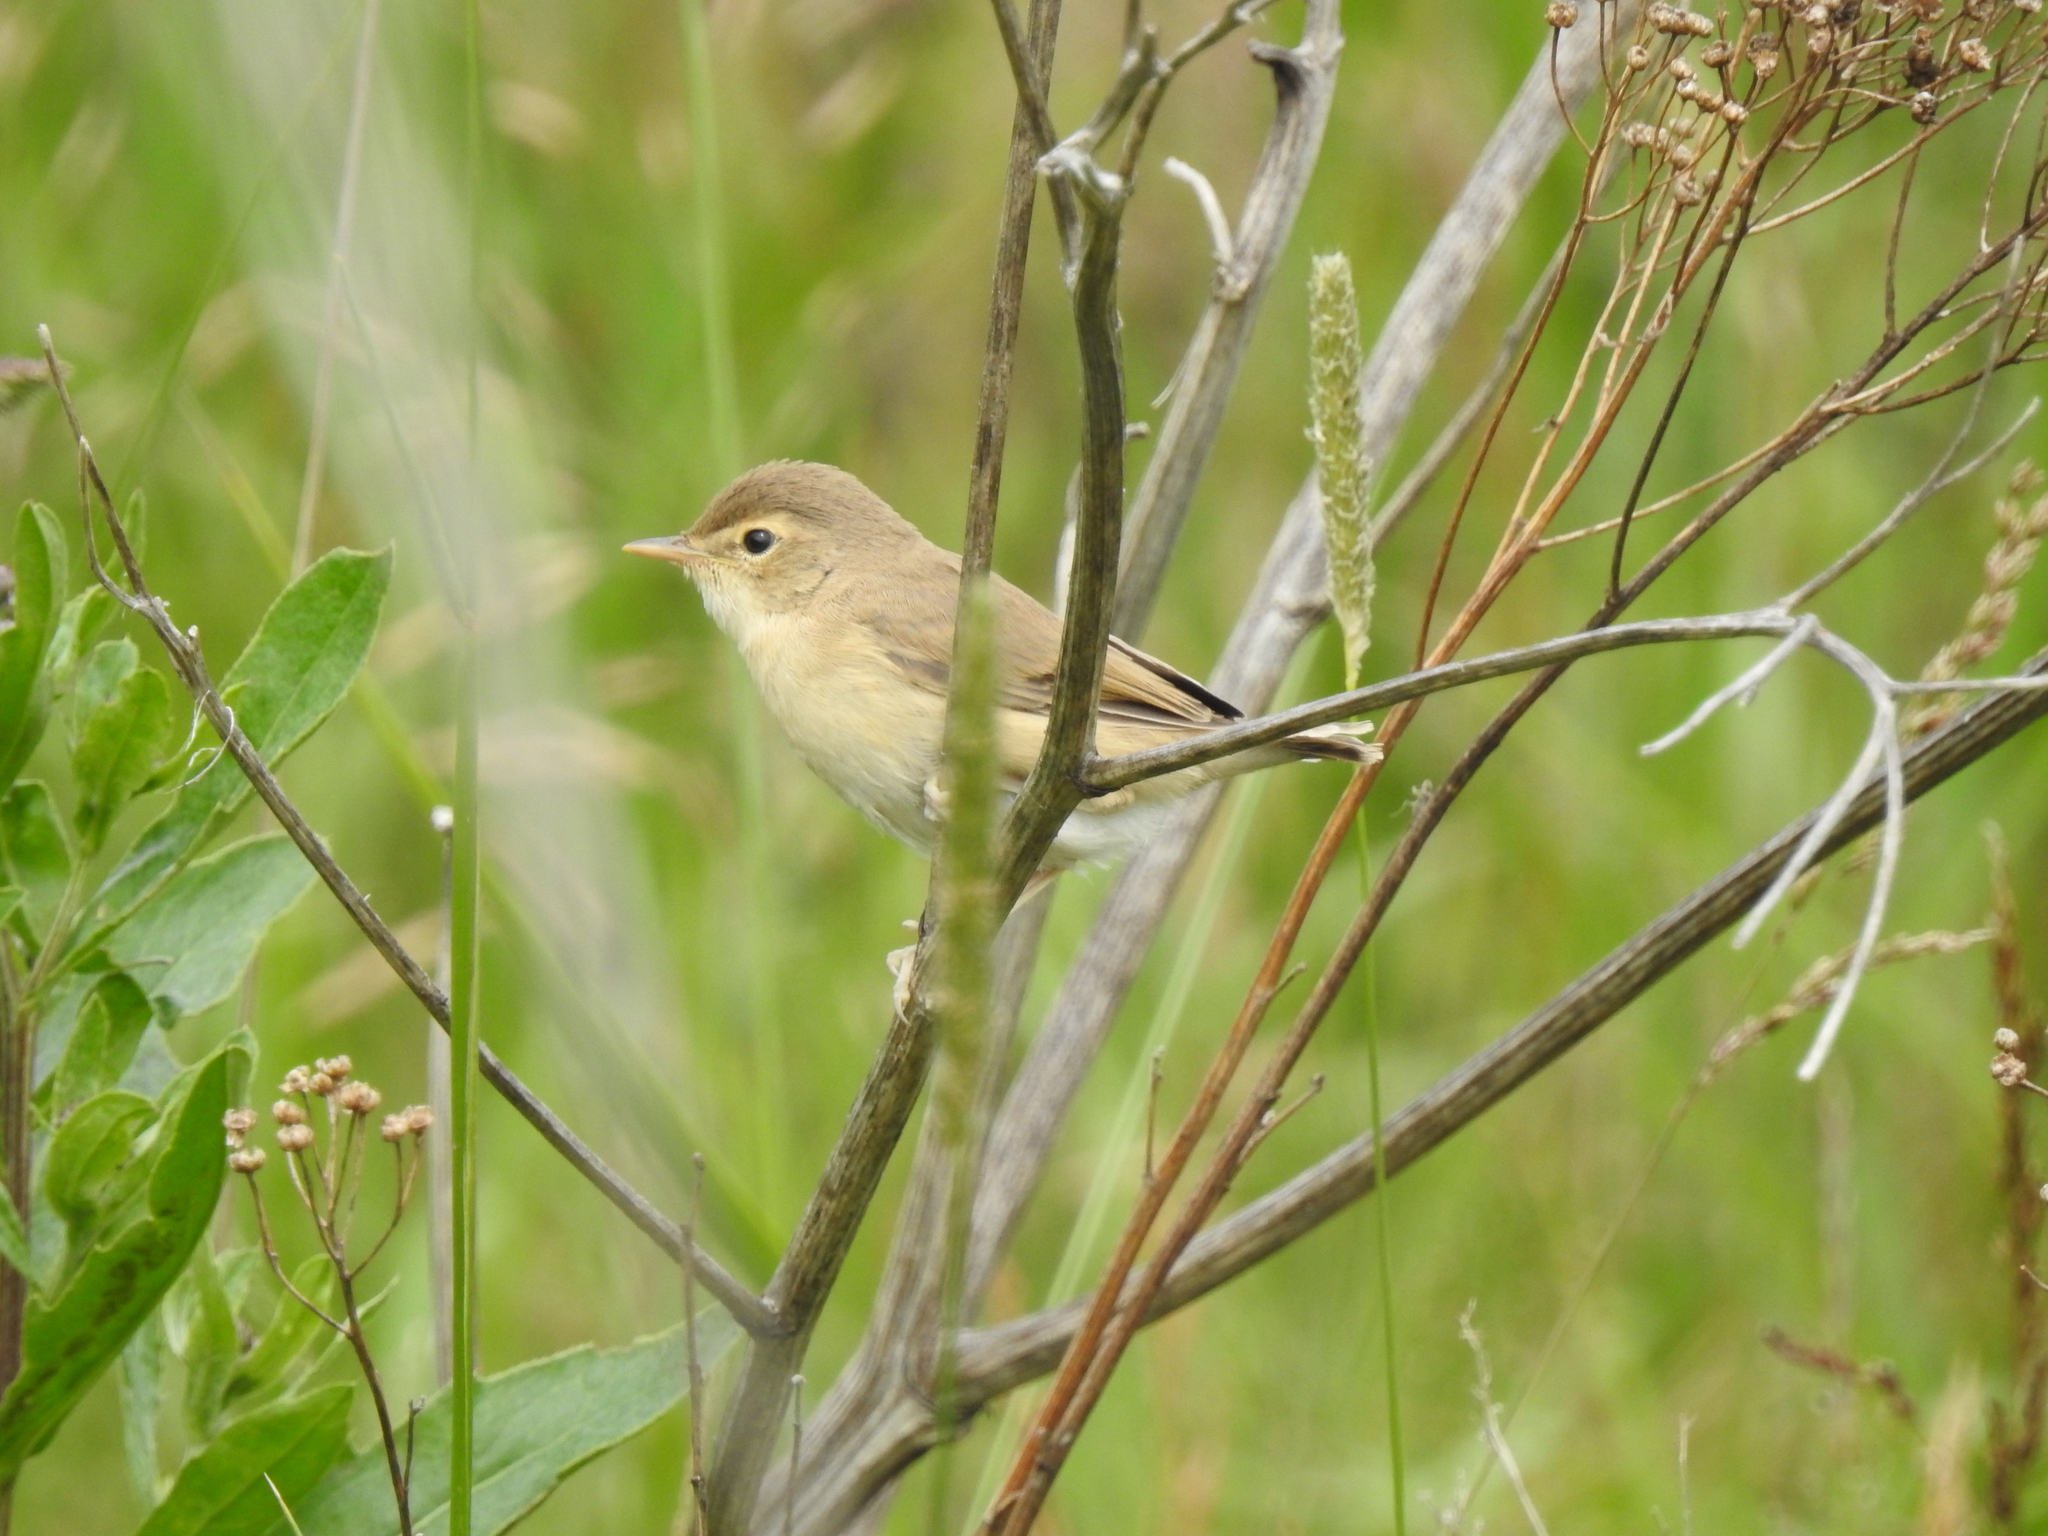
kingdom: Animalia
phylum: Chordata
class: Aves
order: Passeriformes
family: Acrocephalidae
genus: Iduna
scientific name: Iduna caligata
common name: Booted warbler
